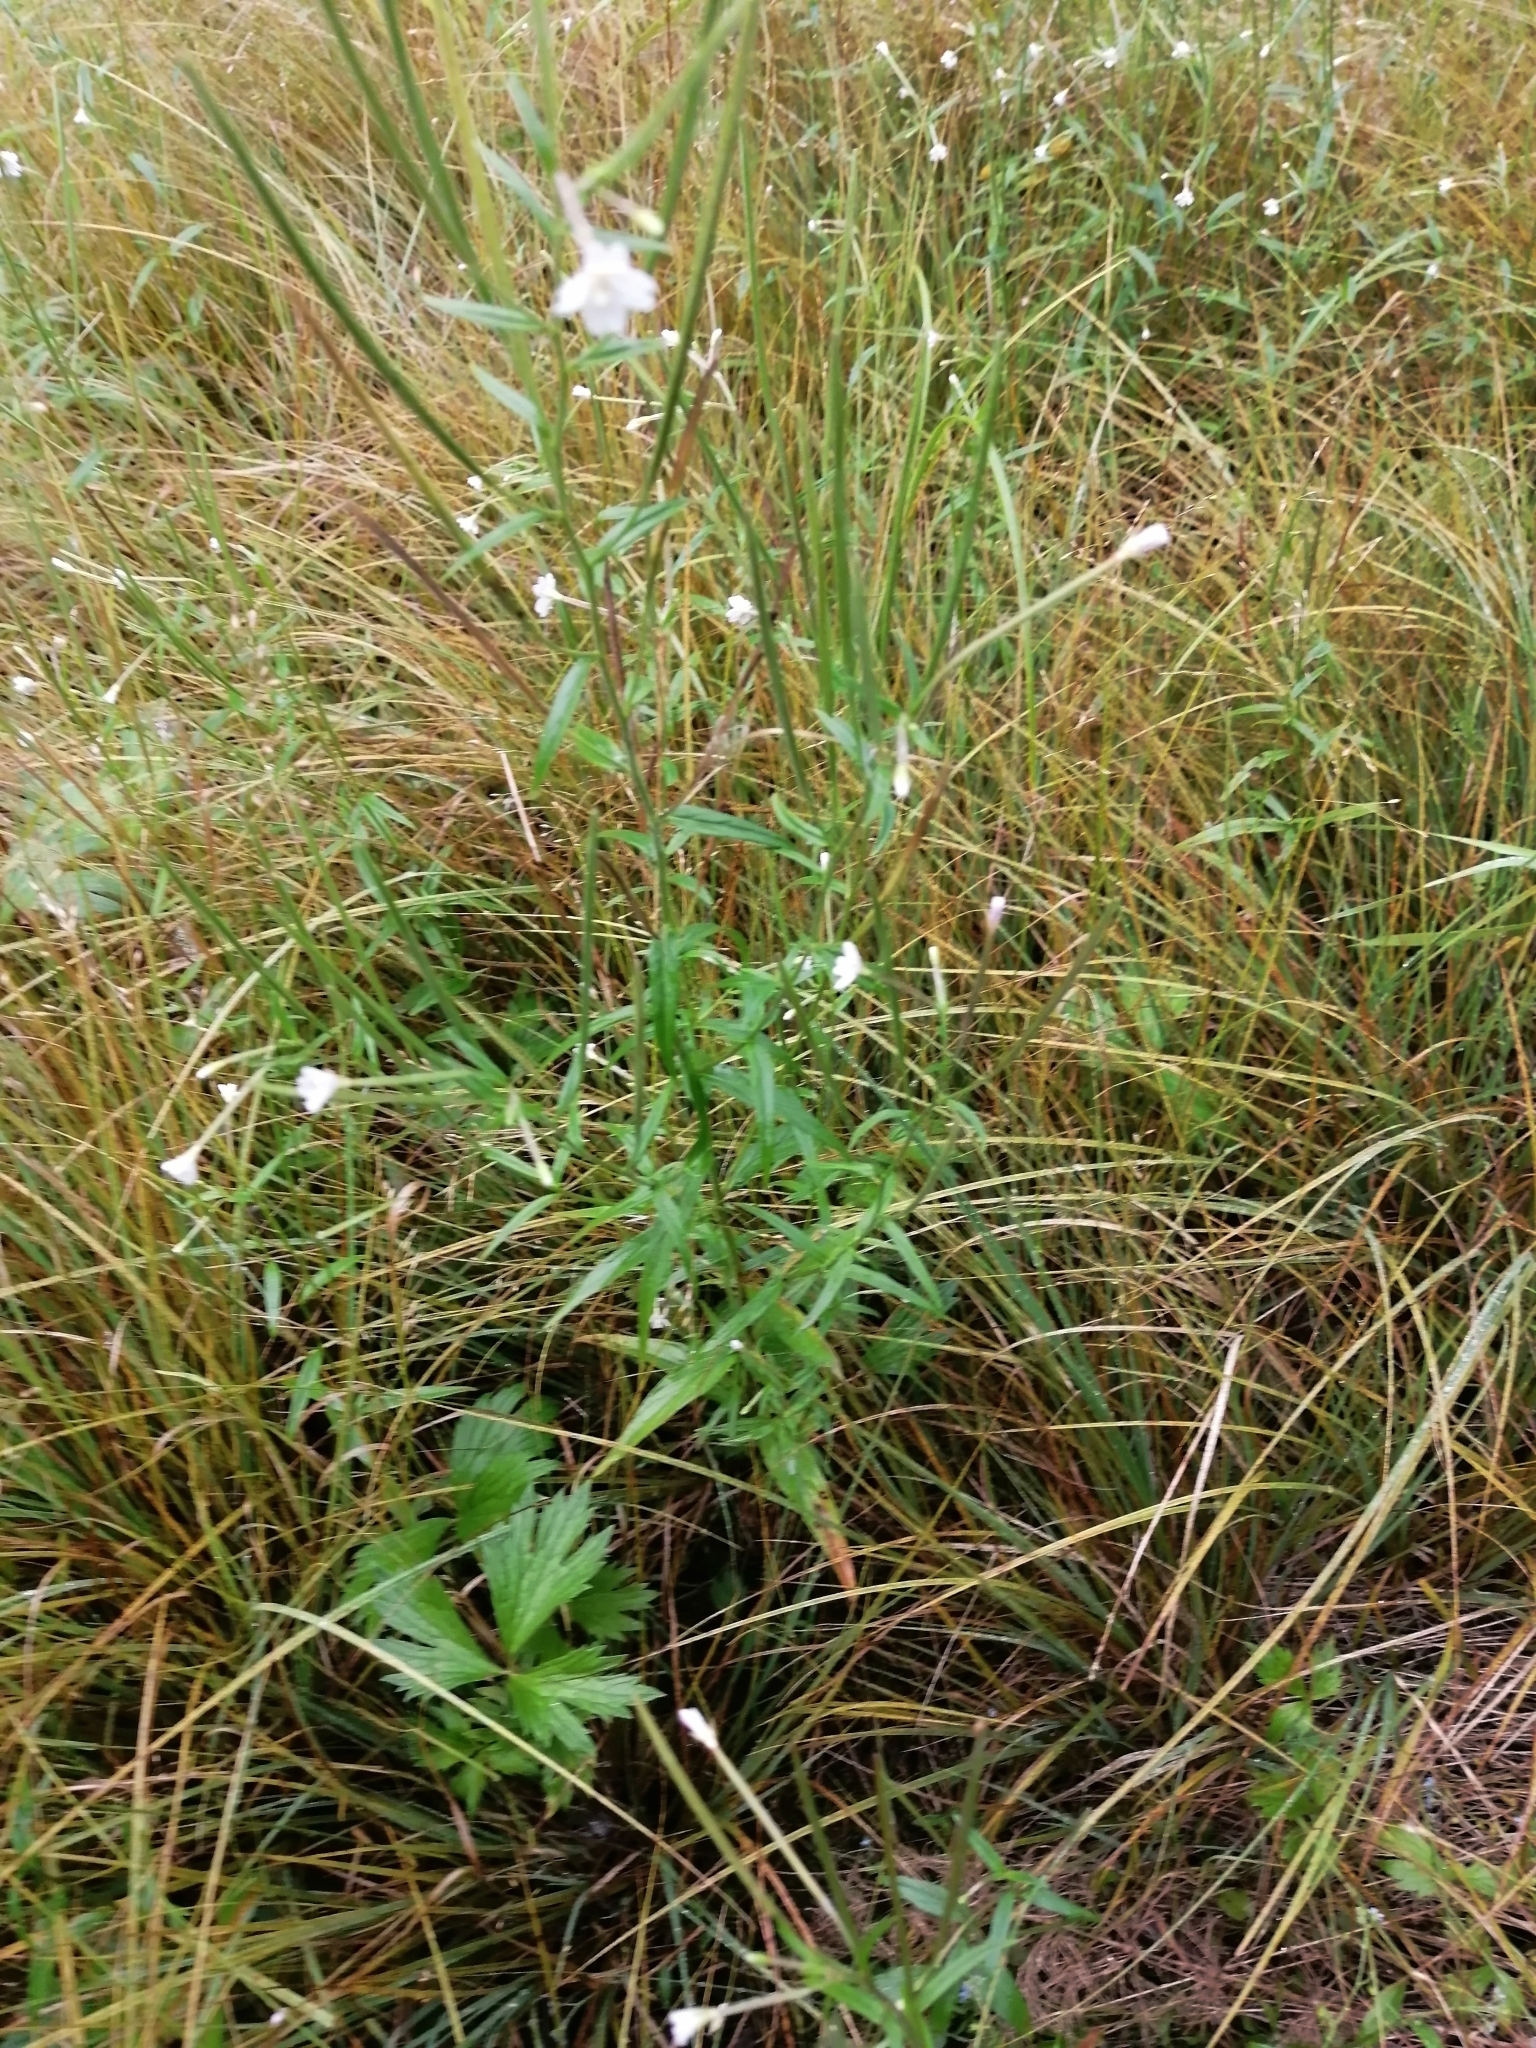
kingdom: Plantae
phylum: Tracheophyta
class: Magnoliopsida
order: Myrtales
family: Onagraceae
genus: Epilobium
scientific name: Epilobium palustre
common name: Marsh willowherb
